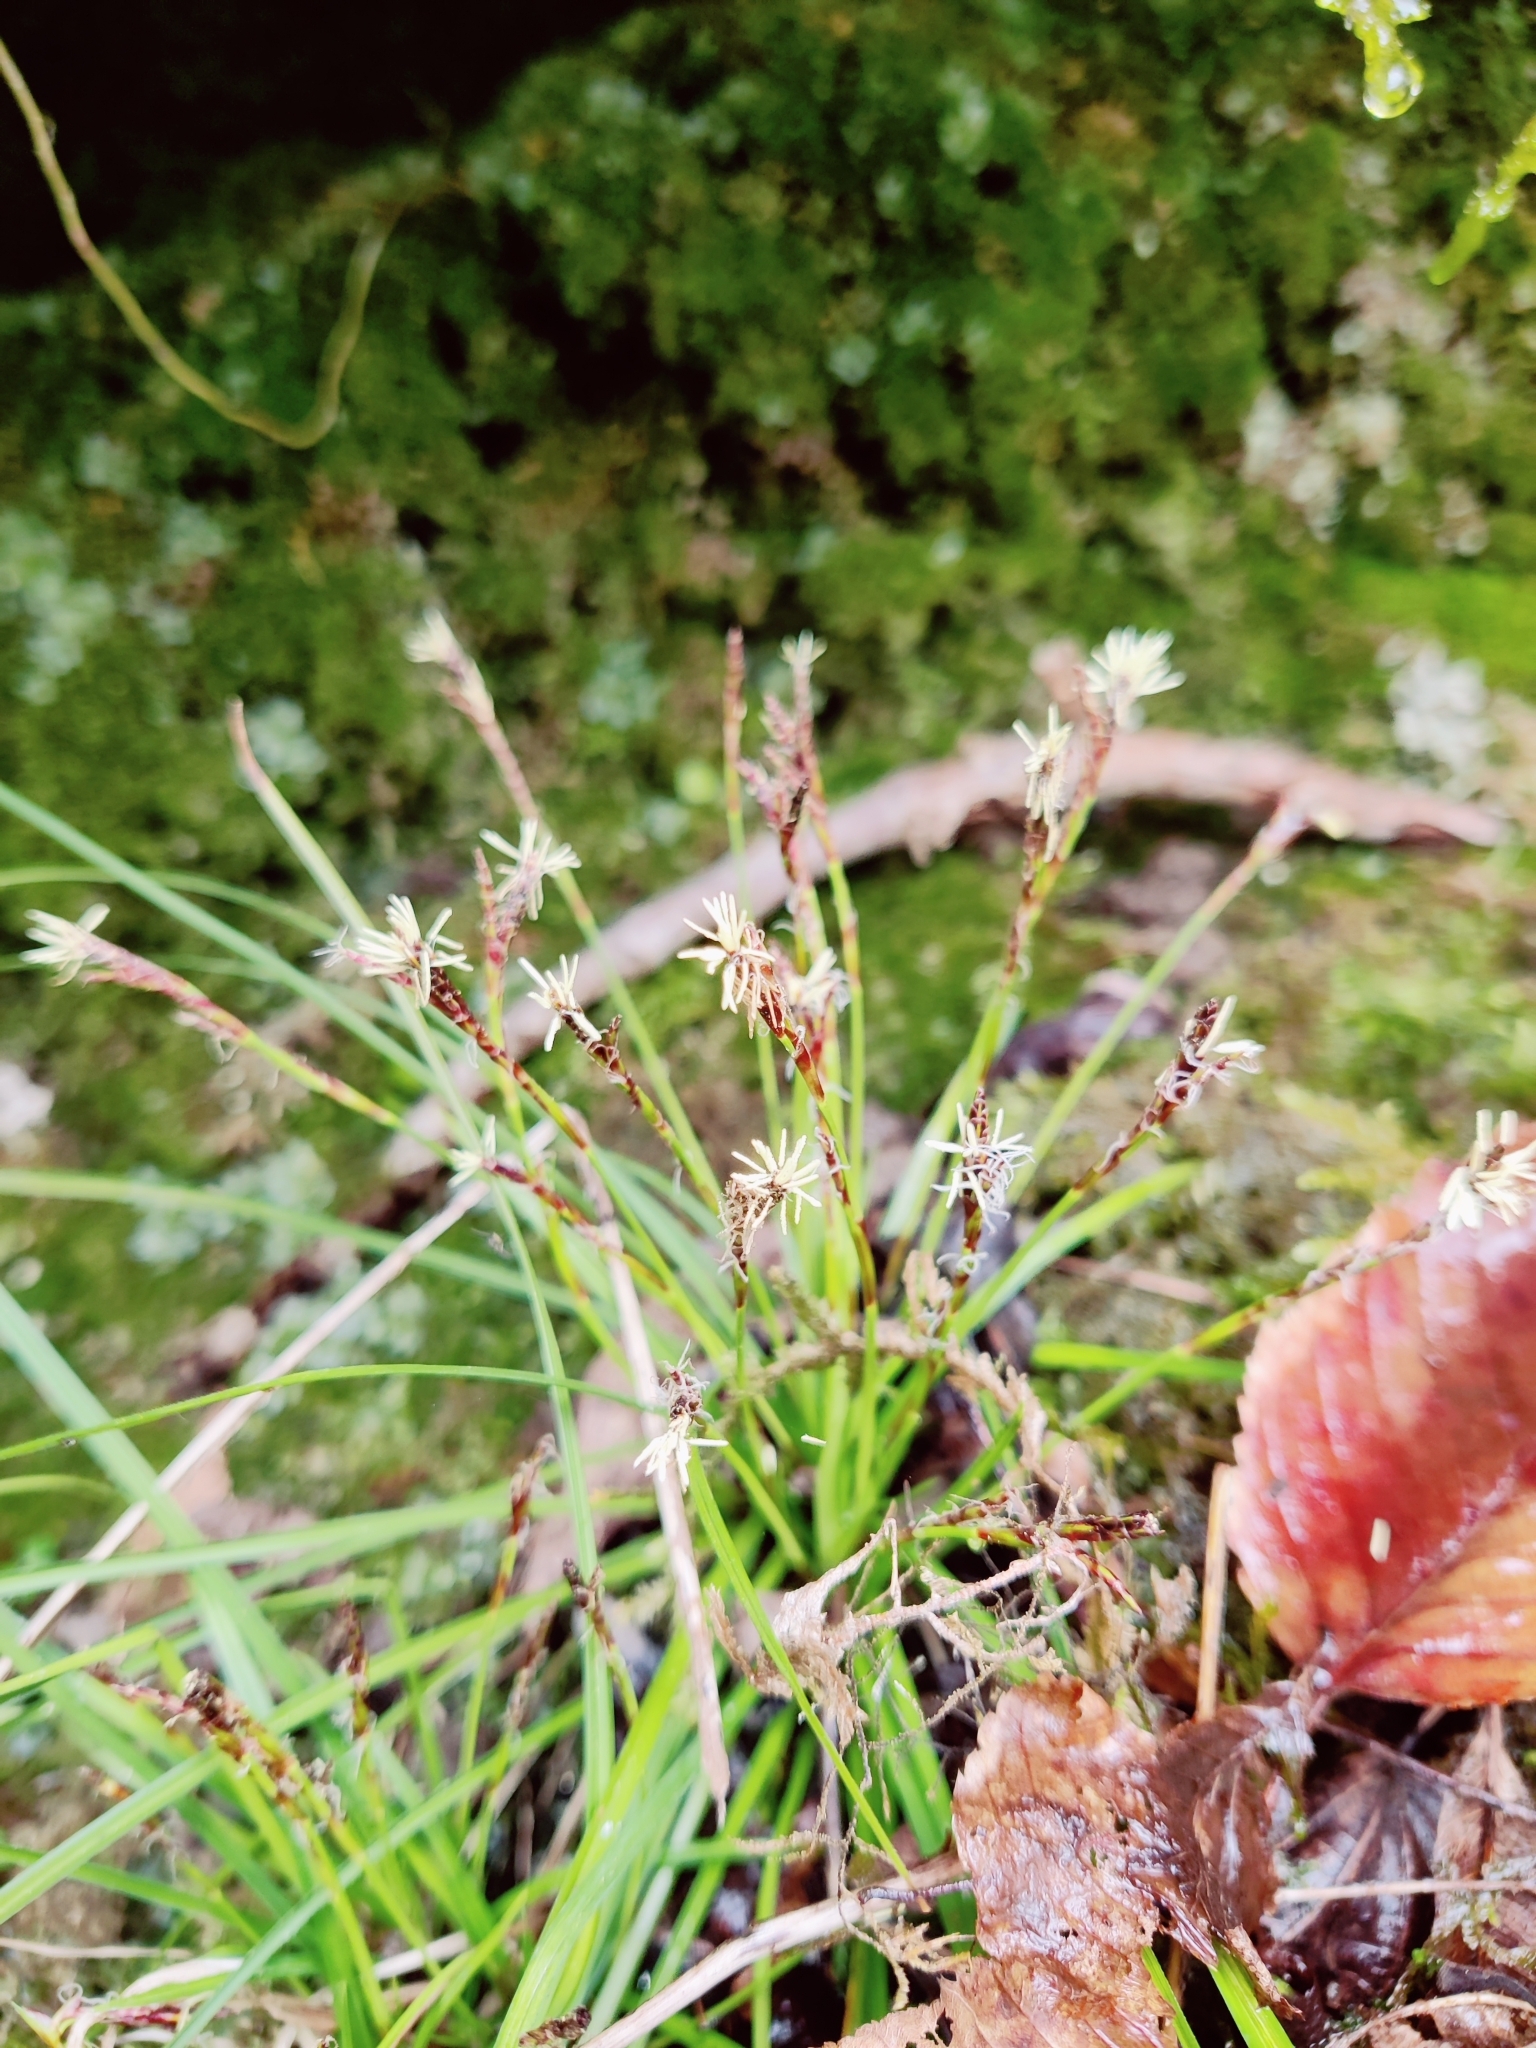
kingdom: Plantae
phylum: Tracheophyta
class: Liliopsida
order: Poales
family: Cyperaceae
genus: Carex
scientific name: Carex digitata
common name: Fingered sedge
